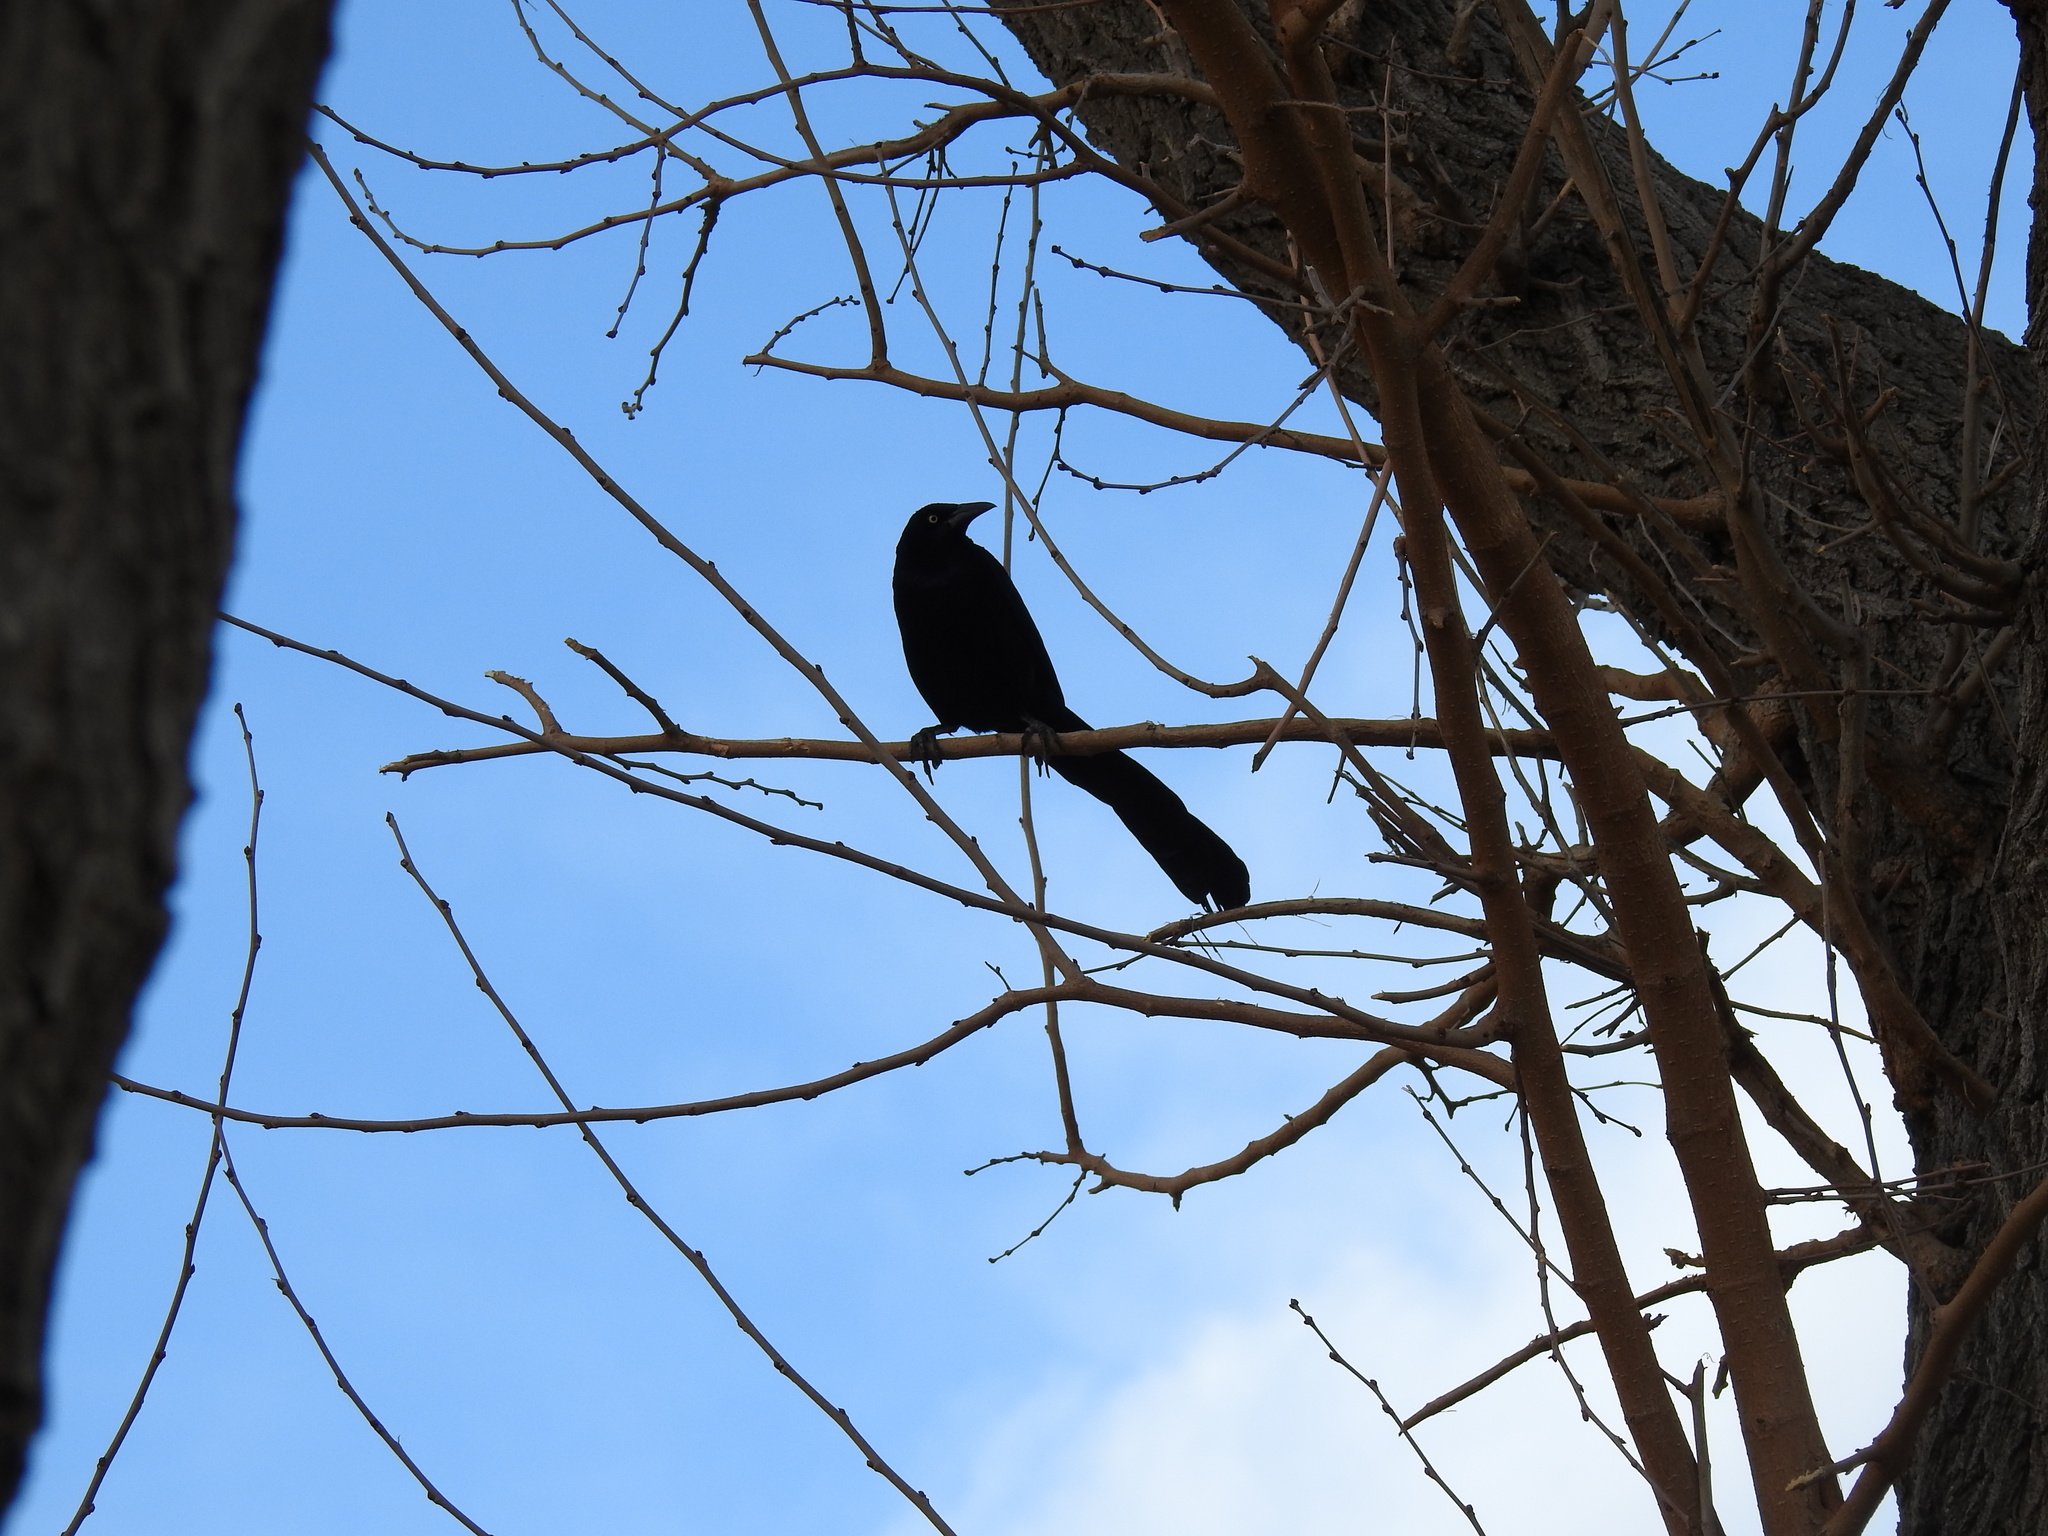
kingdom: Animalia
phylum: Chordata
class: Aves
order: Passeriformes
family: Icteridae
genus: Quiscalus
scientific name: Quiscalus mexicanus
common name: Great-tailed grackle
